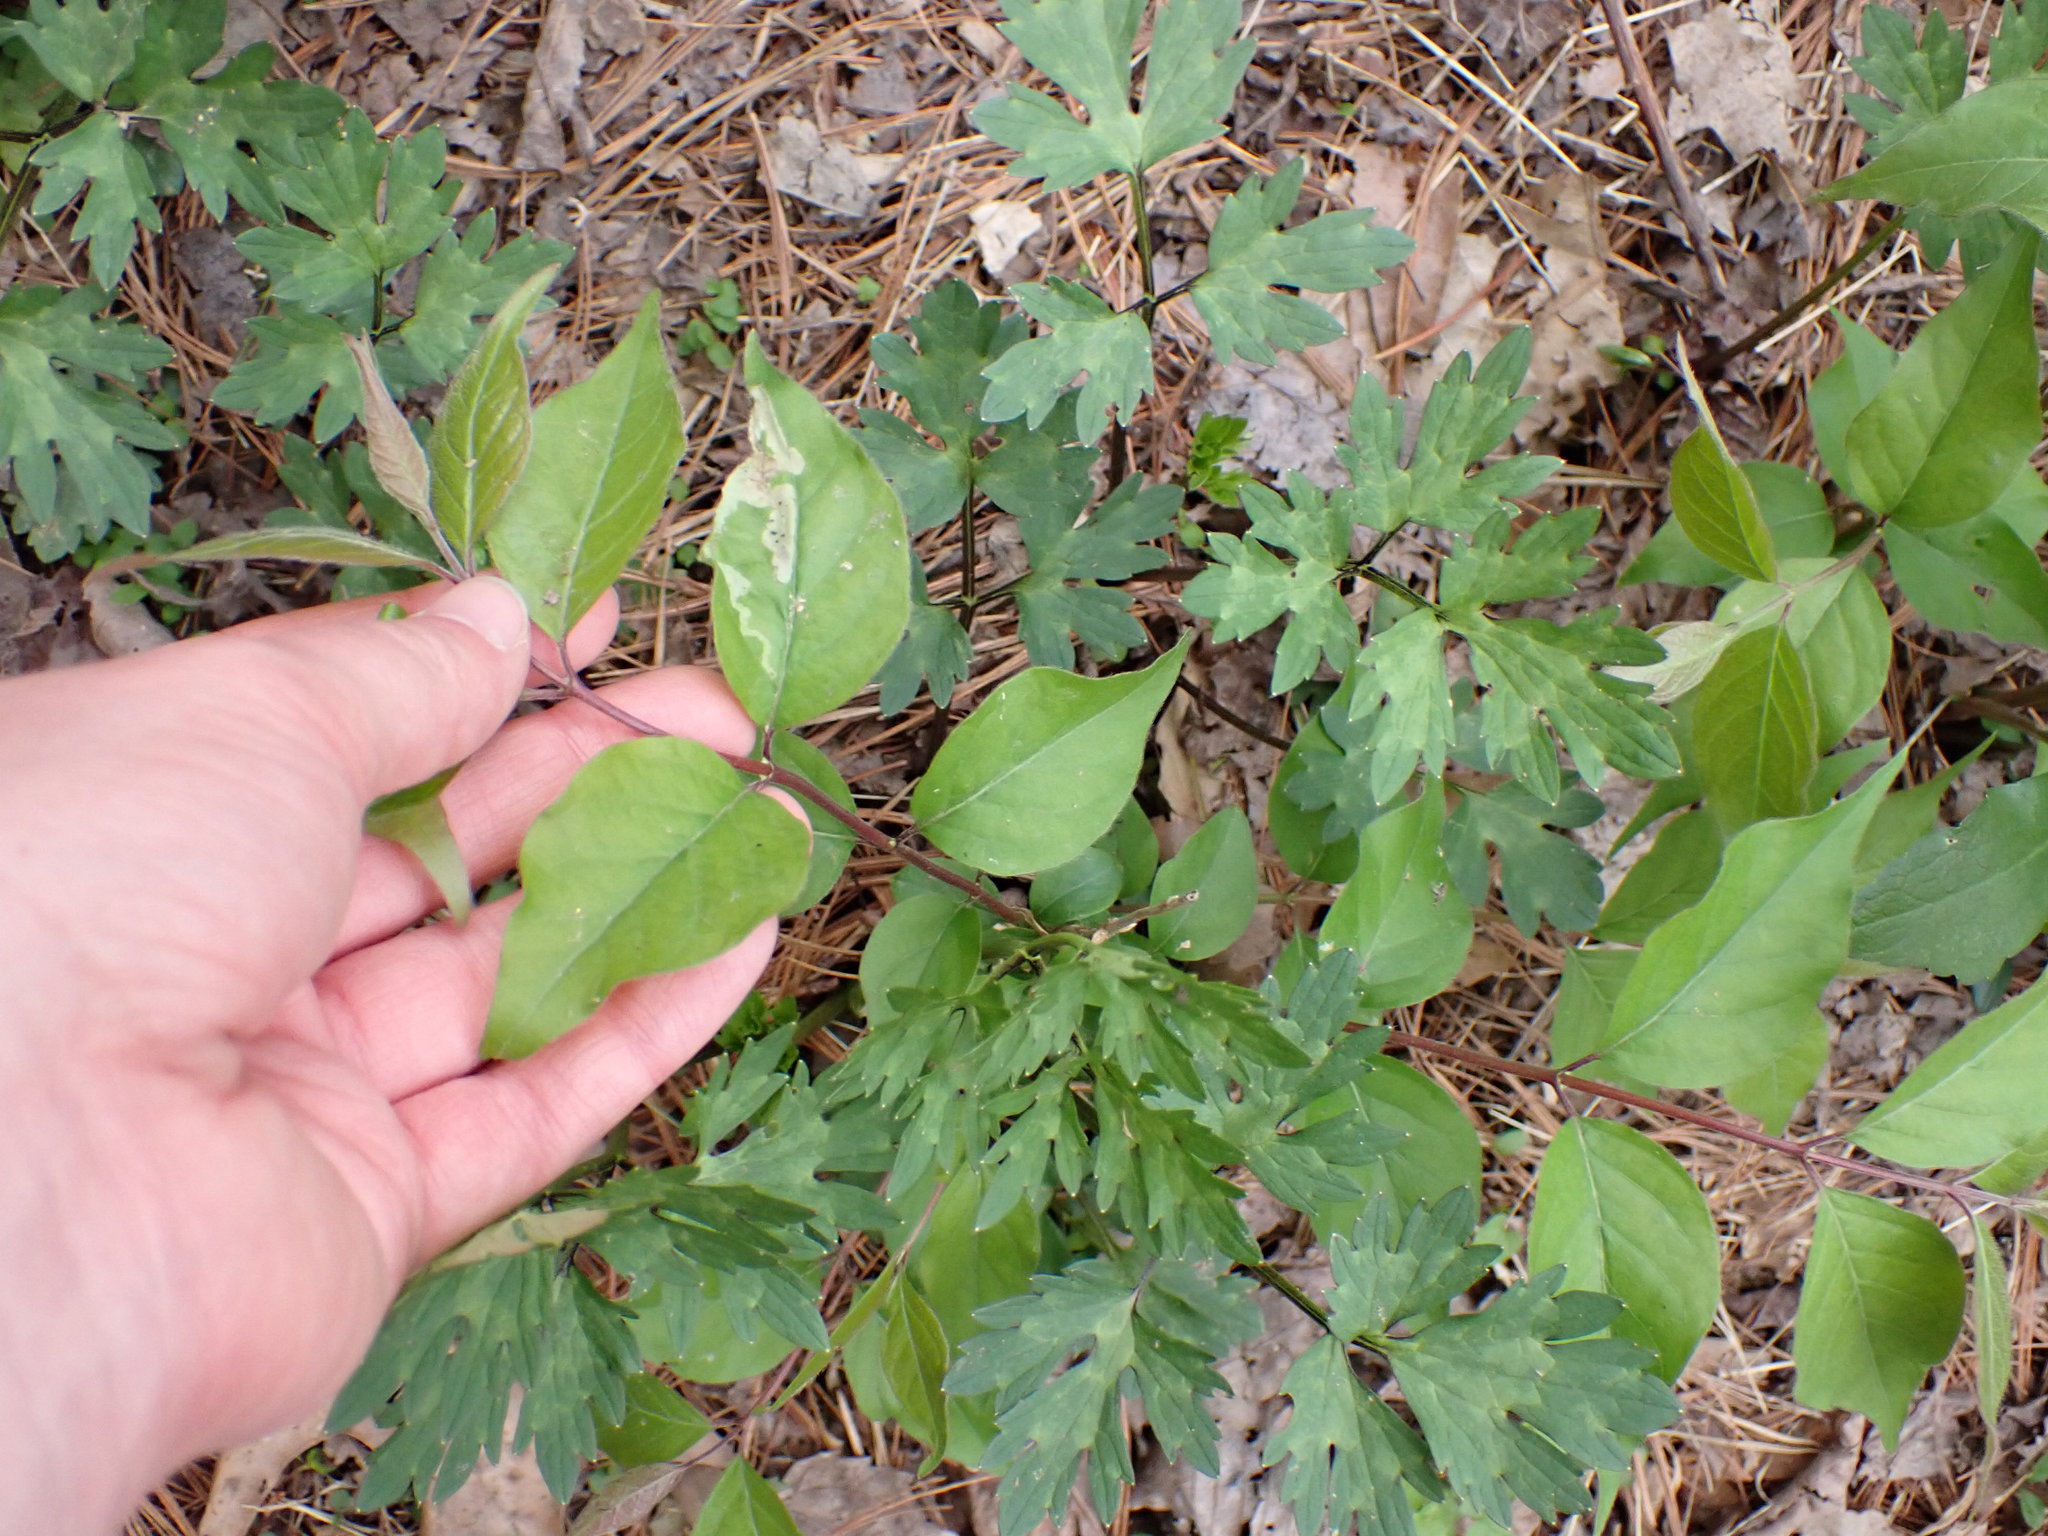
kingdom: Plantae
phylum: Tracheophyta
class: Magnoliopsida
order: Dipsacales
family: Caprifoliaceae
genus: Lonicera
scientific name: Lonicera maackii
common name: Amur honeysuckle
